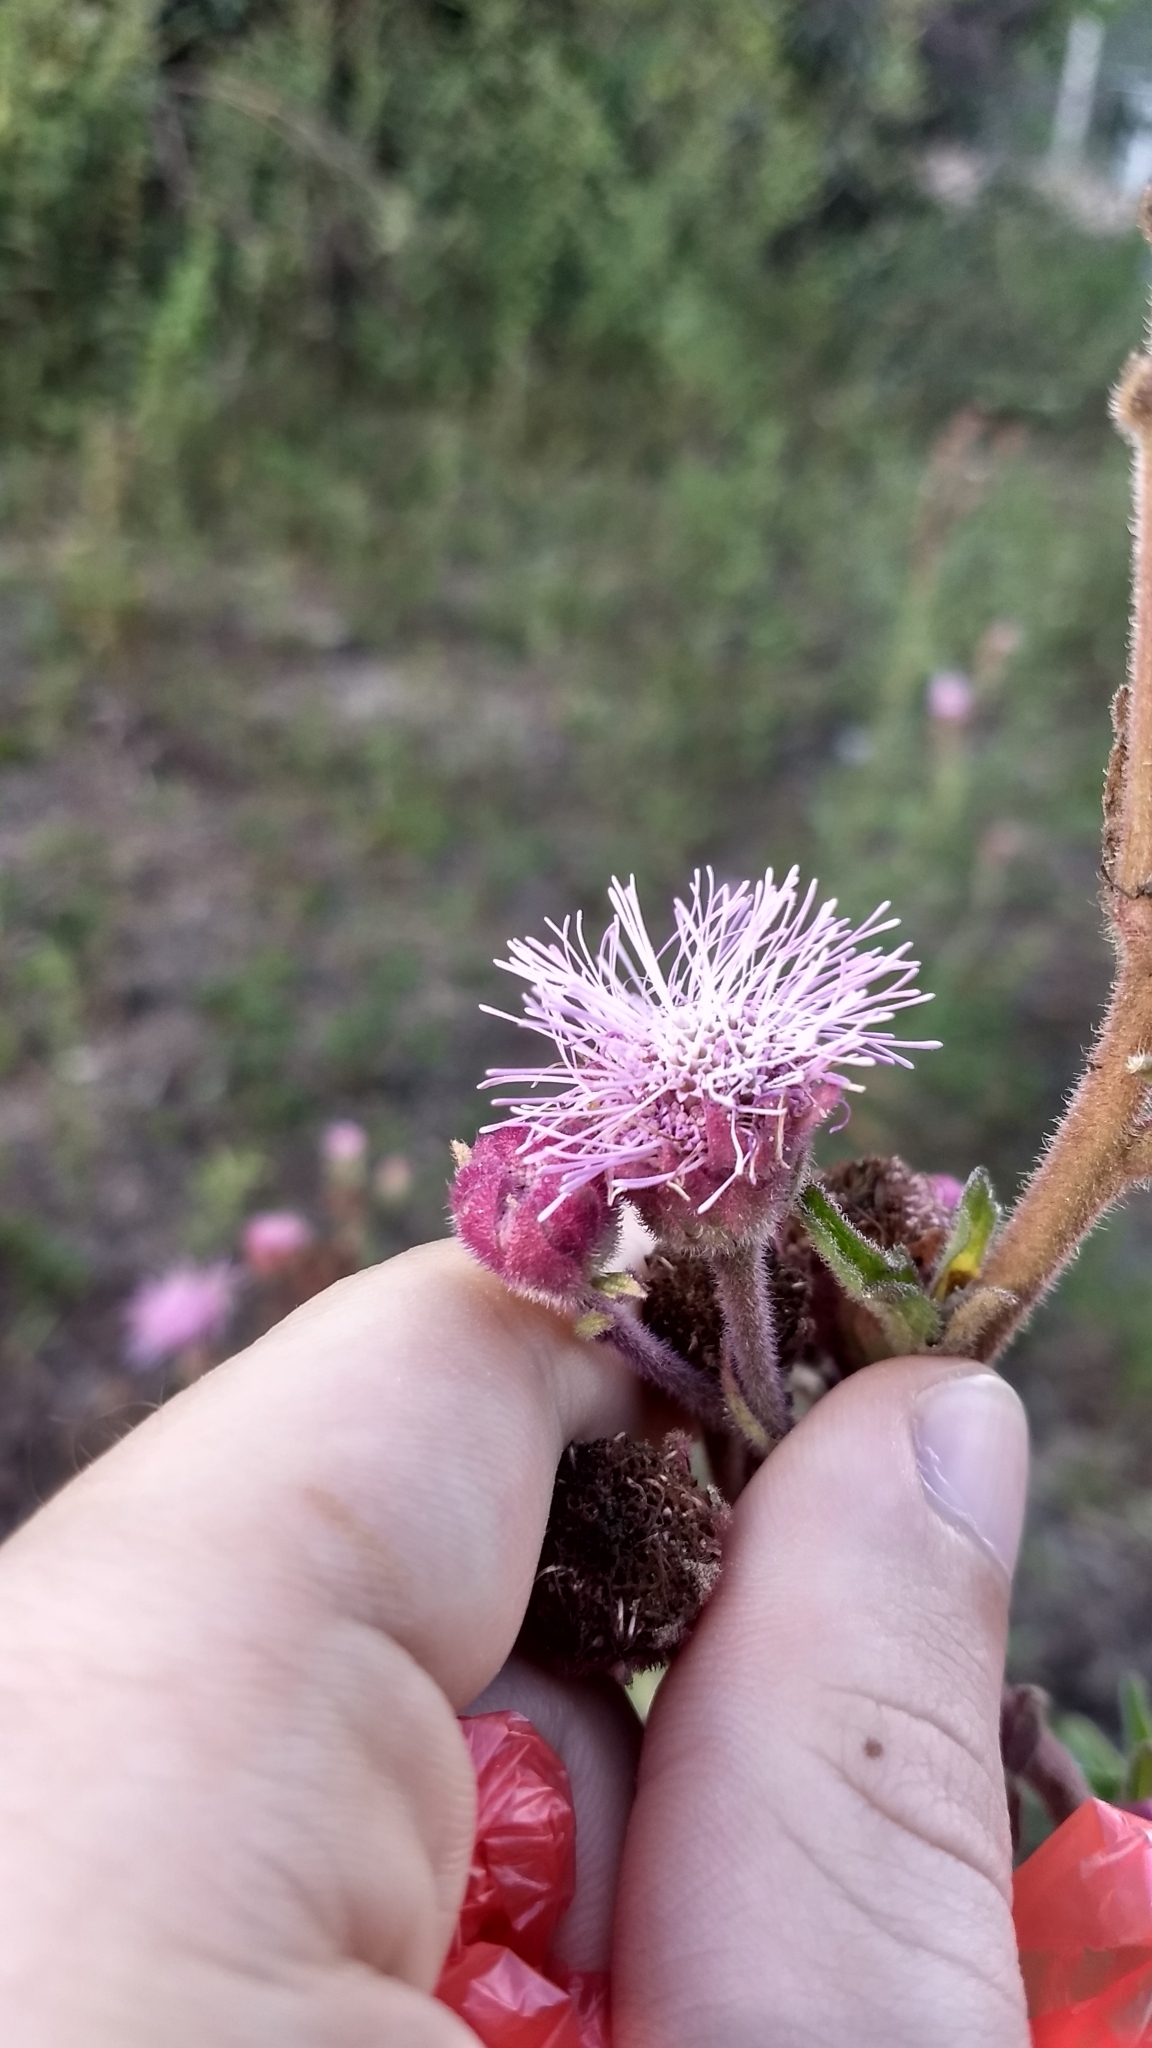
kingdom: Plantae
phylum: Tracheophyta
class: Magnoliopsida
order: Asterales
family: Asteraceae
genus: Campuloclinium
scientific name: Campuloclinium macrocephalum
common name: Pompomweed
